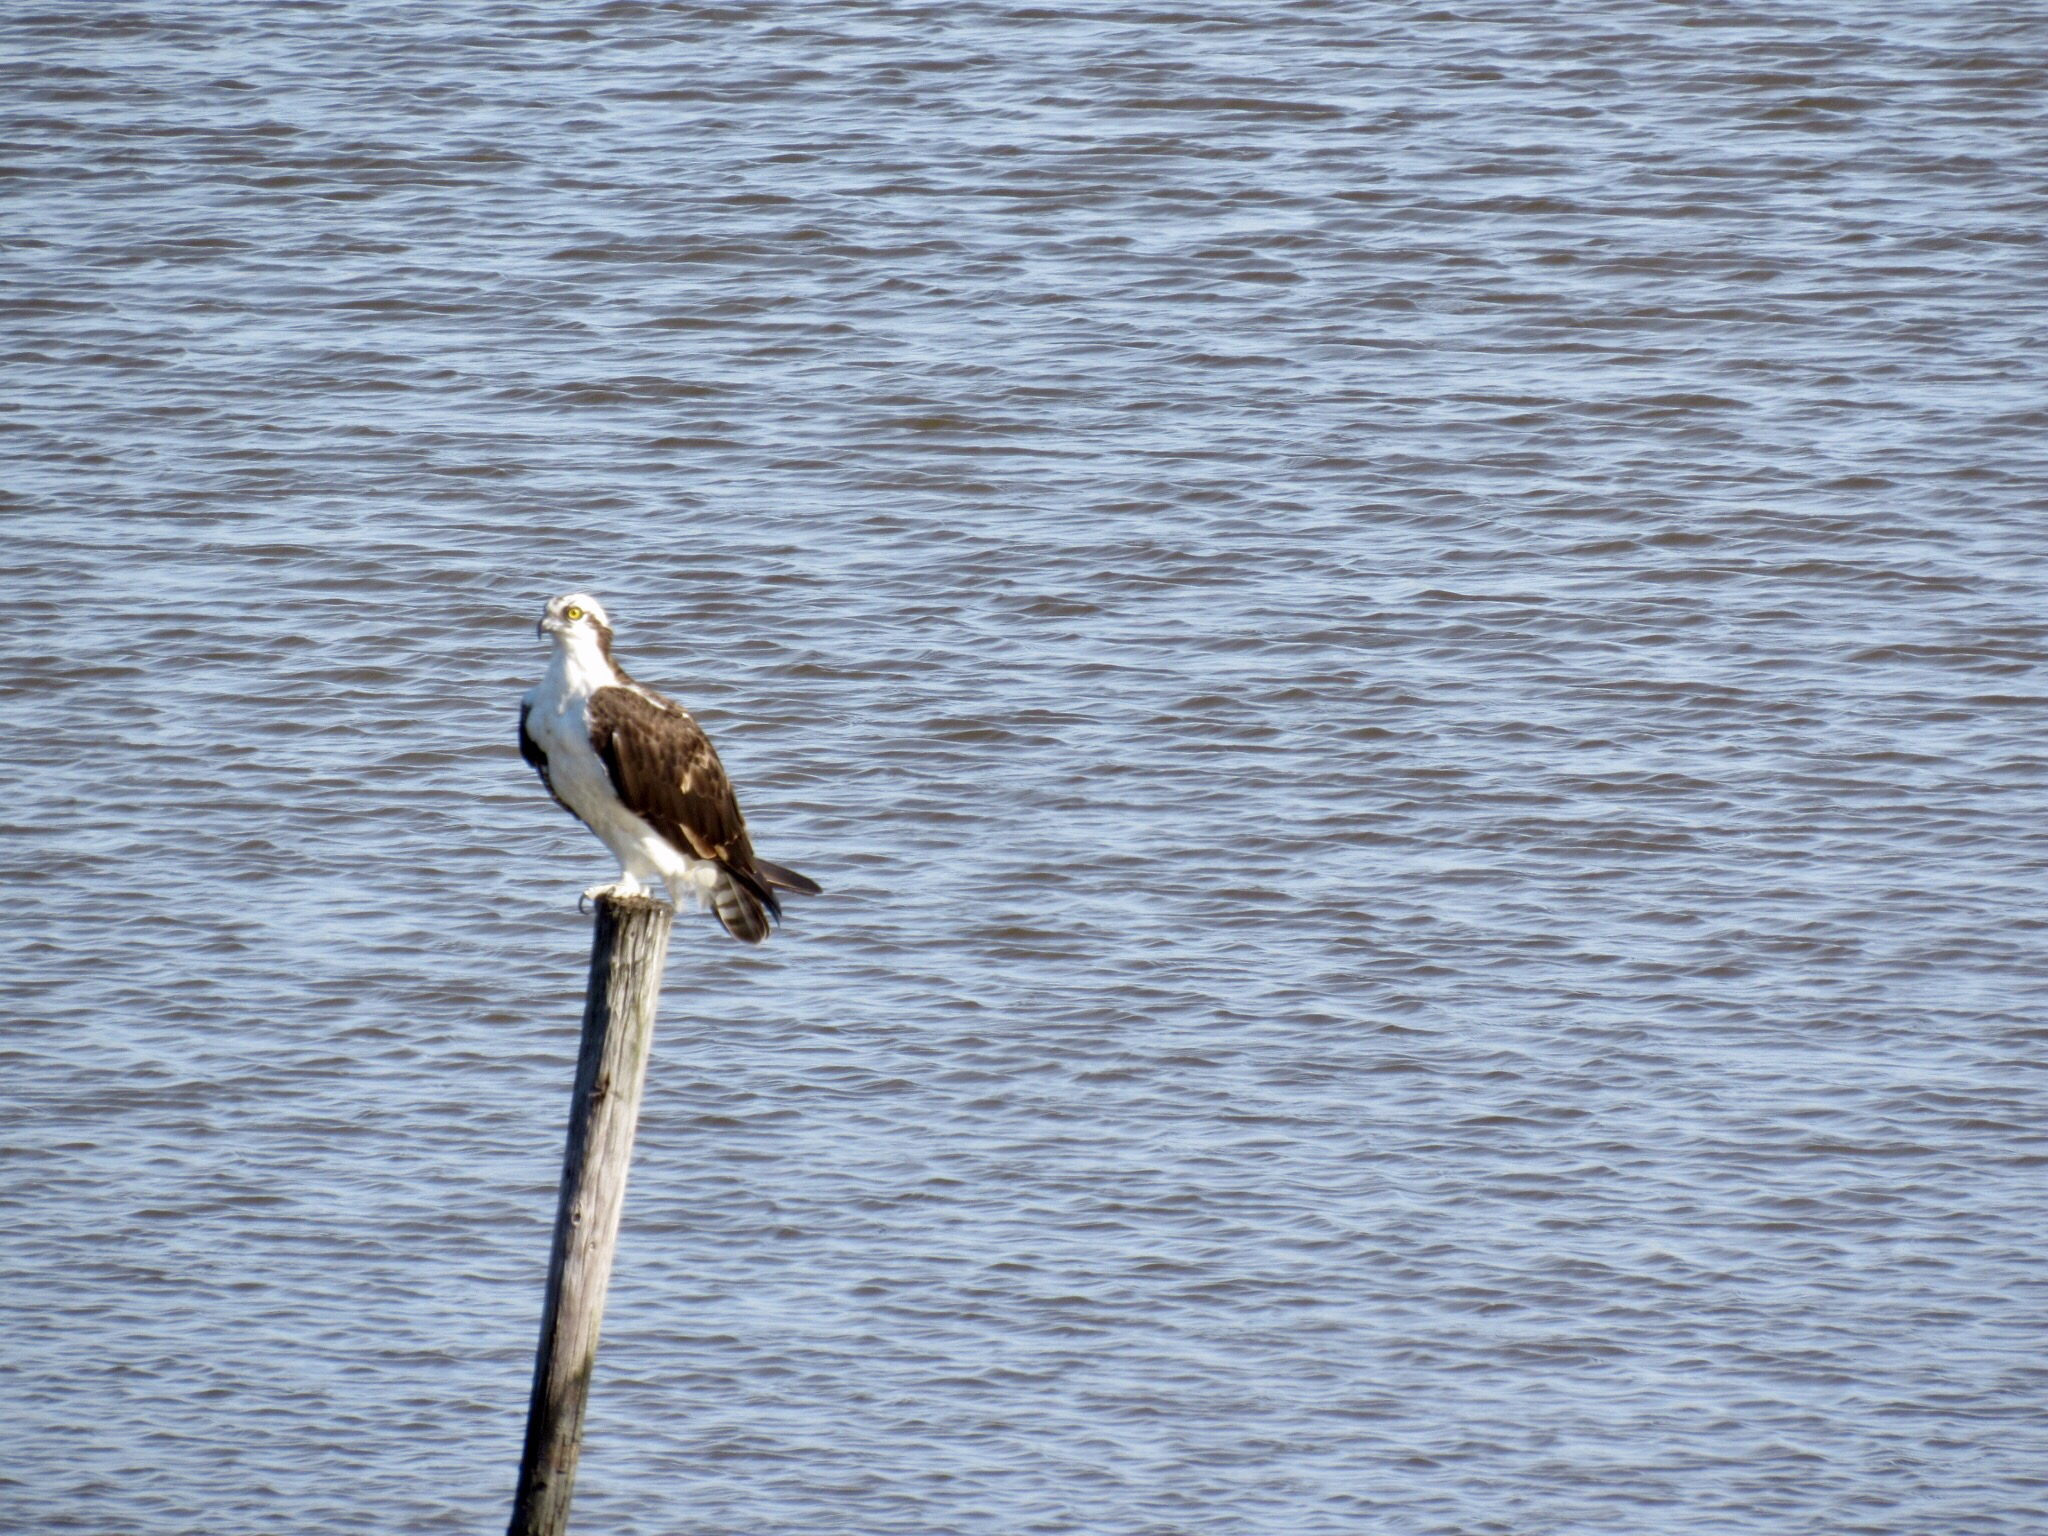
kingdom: Animalia
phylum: Chordata
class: Aves
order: Accipitriformes
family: Pandionidae
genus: Pandion
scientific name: Pandion haliaetus
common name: Osprey
